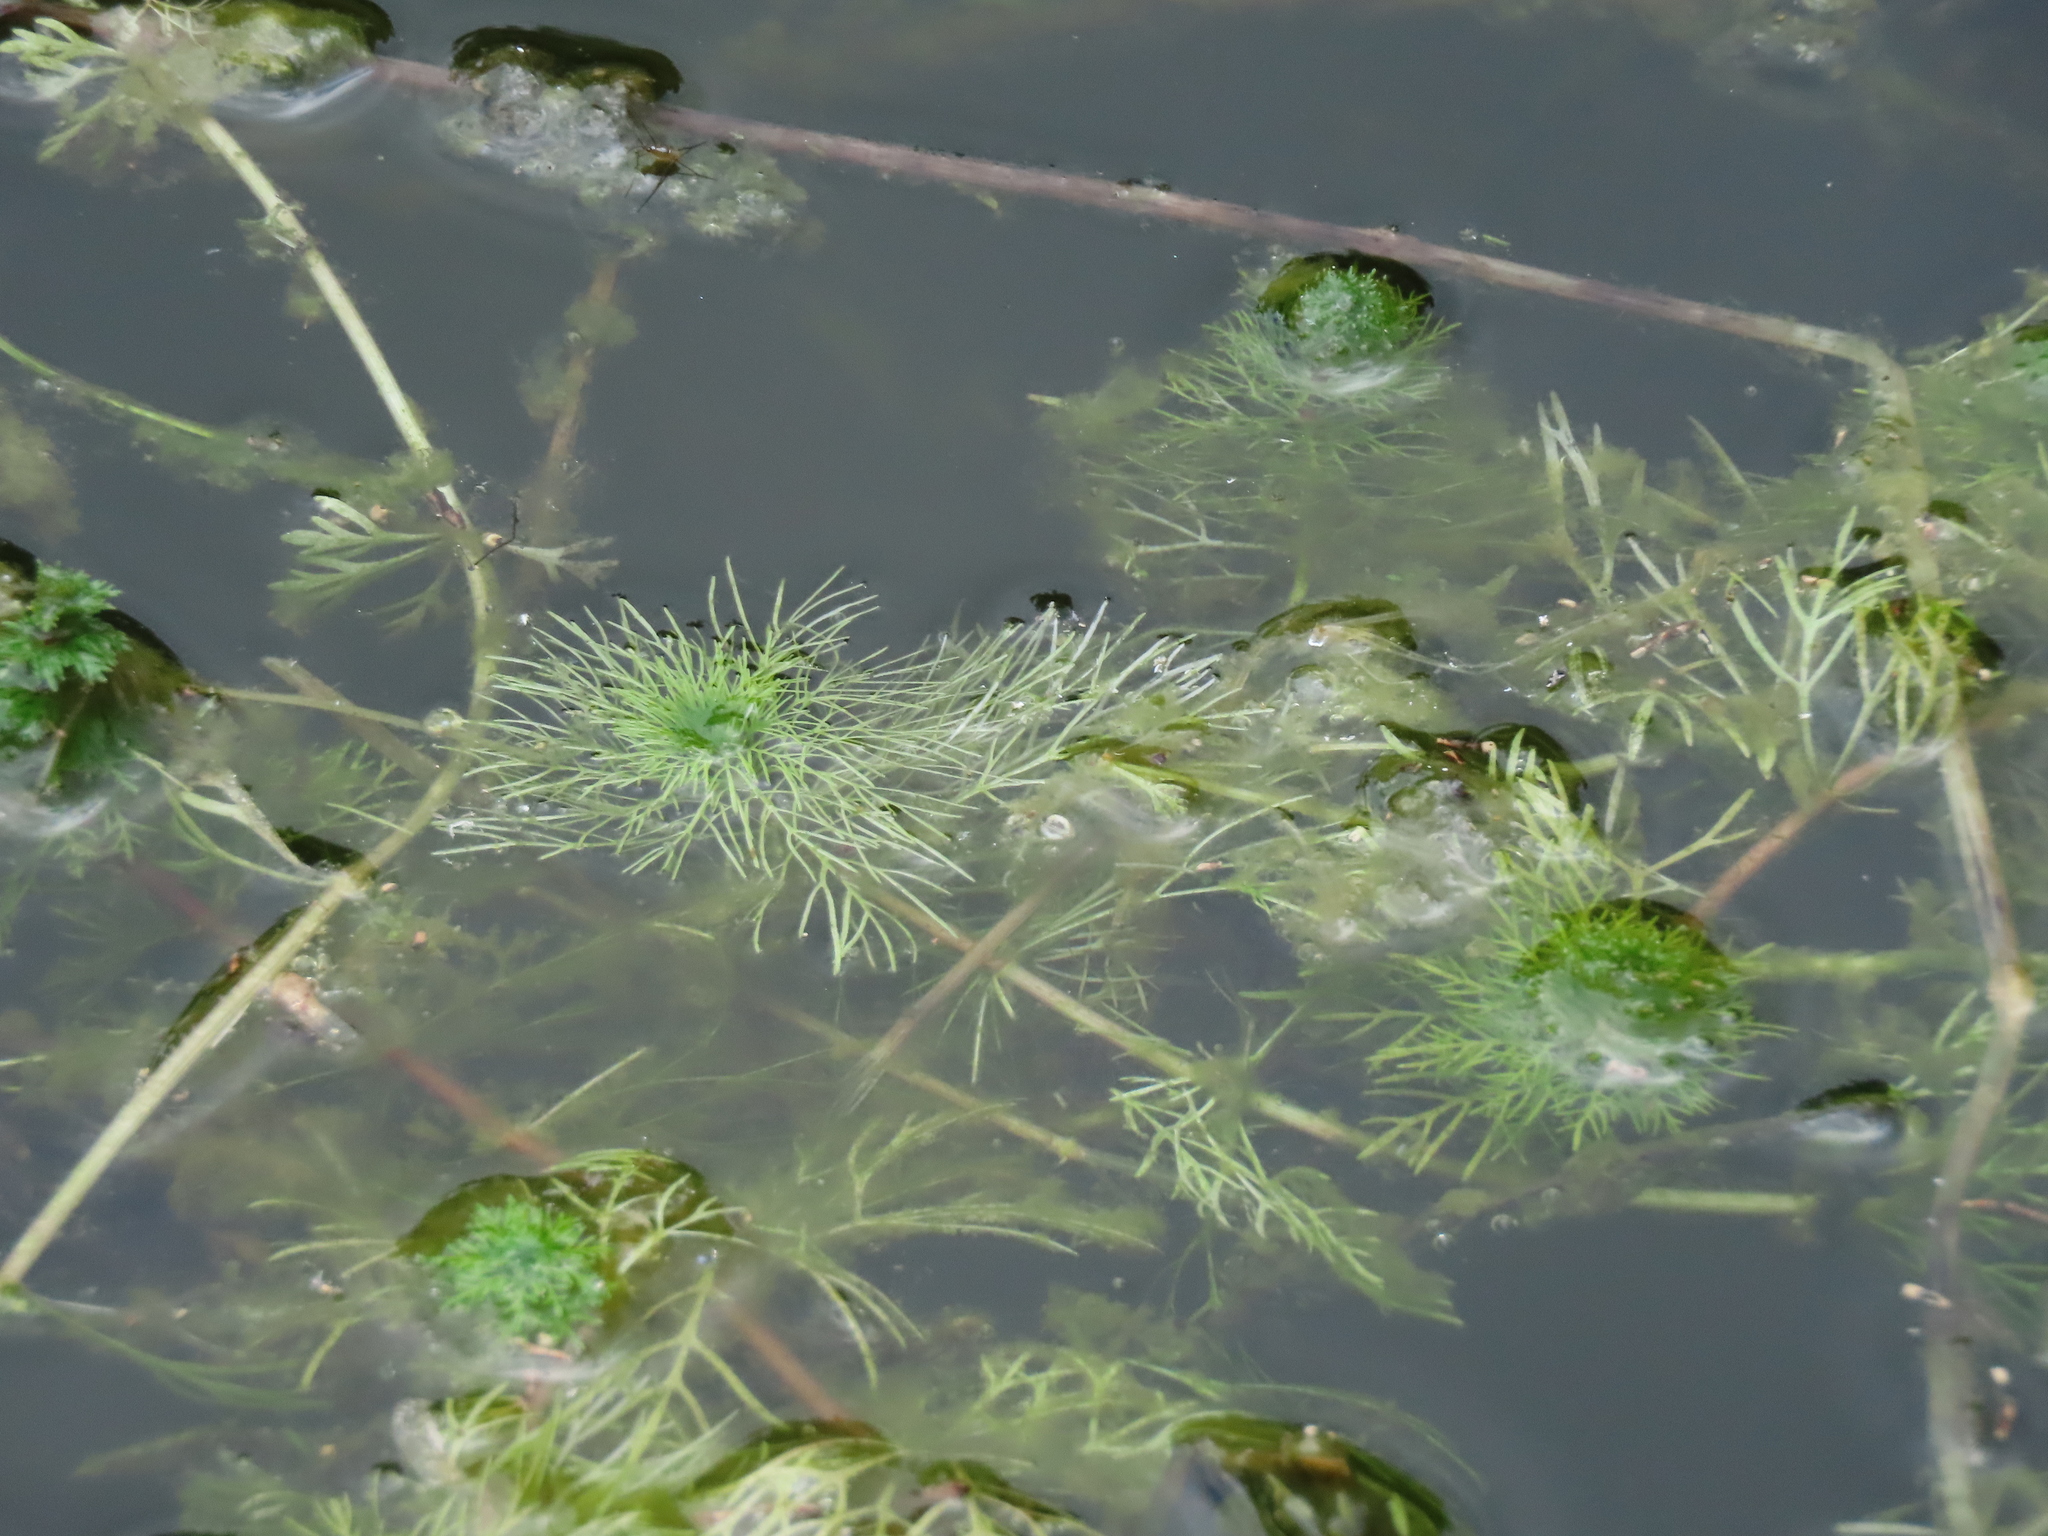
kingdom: Plantae
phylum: Tracheophyta
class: Magnoliopsida
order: Lamiales
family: Plantaginaceae
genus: Limnophila
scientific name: Limnophila indica
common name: Indian marshweed
